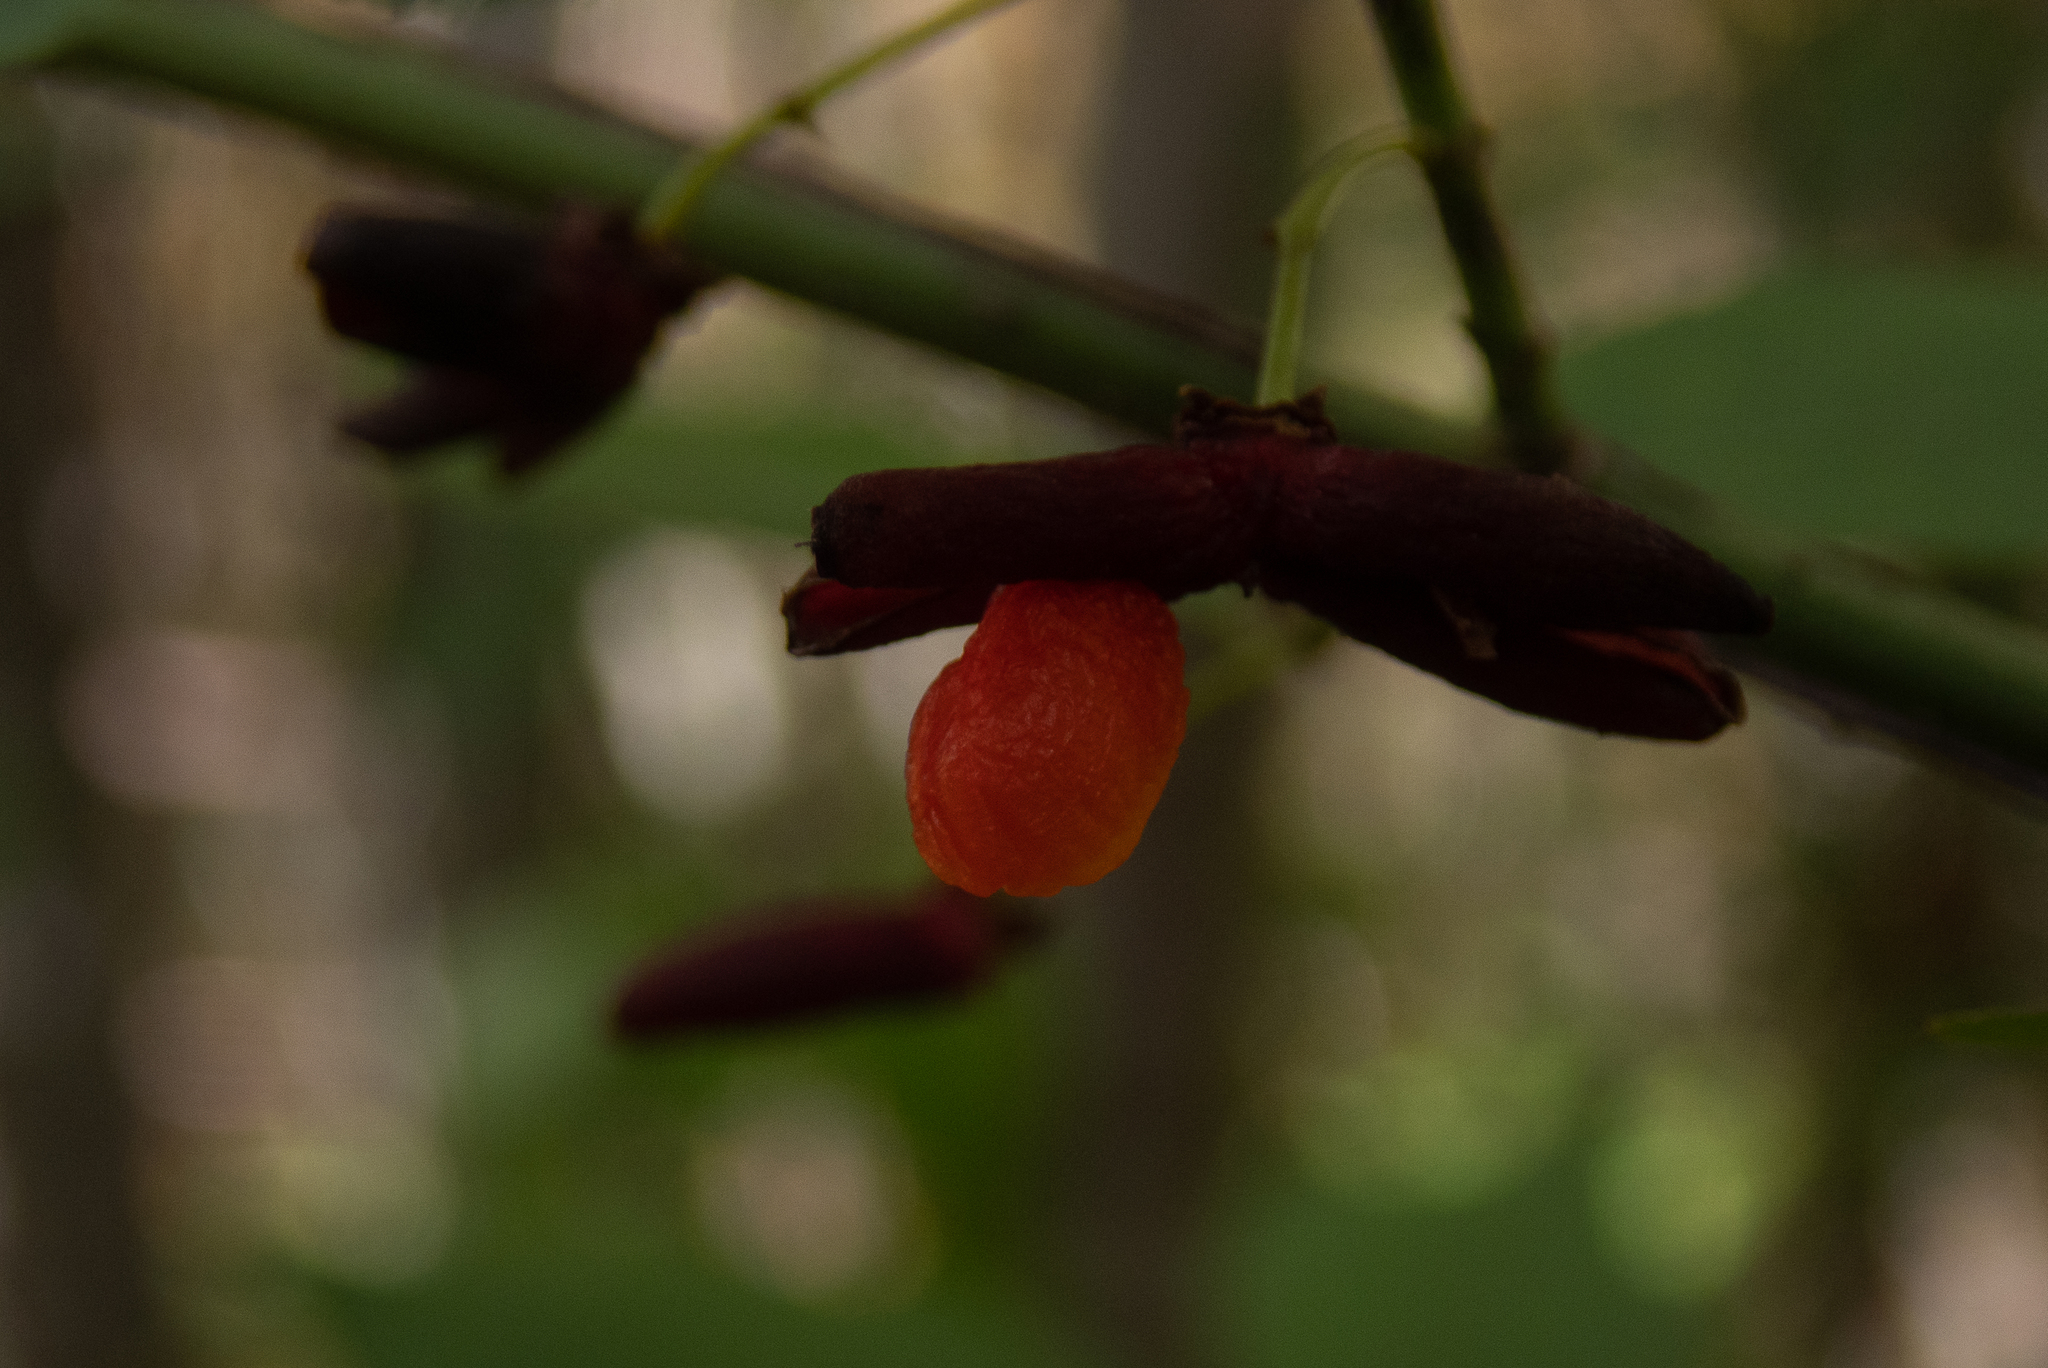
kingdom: Plantae
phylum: Tracheophyta
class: Magnoliopsida
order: Celastrales
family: Celastraceae
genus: Euonymus
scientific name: Euonymus alatus
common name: Winged euonymus
